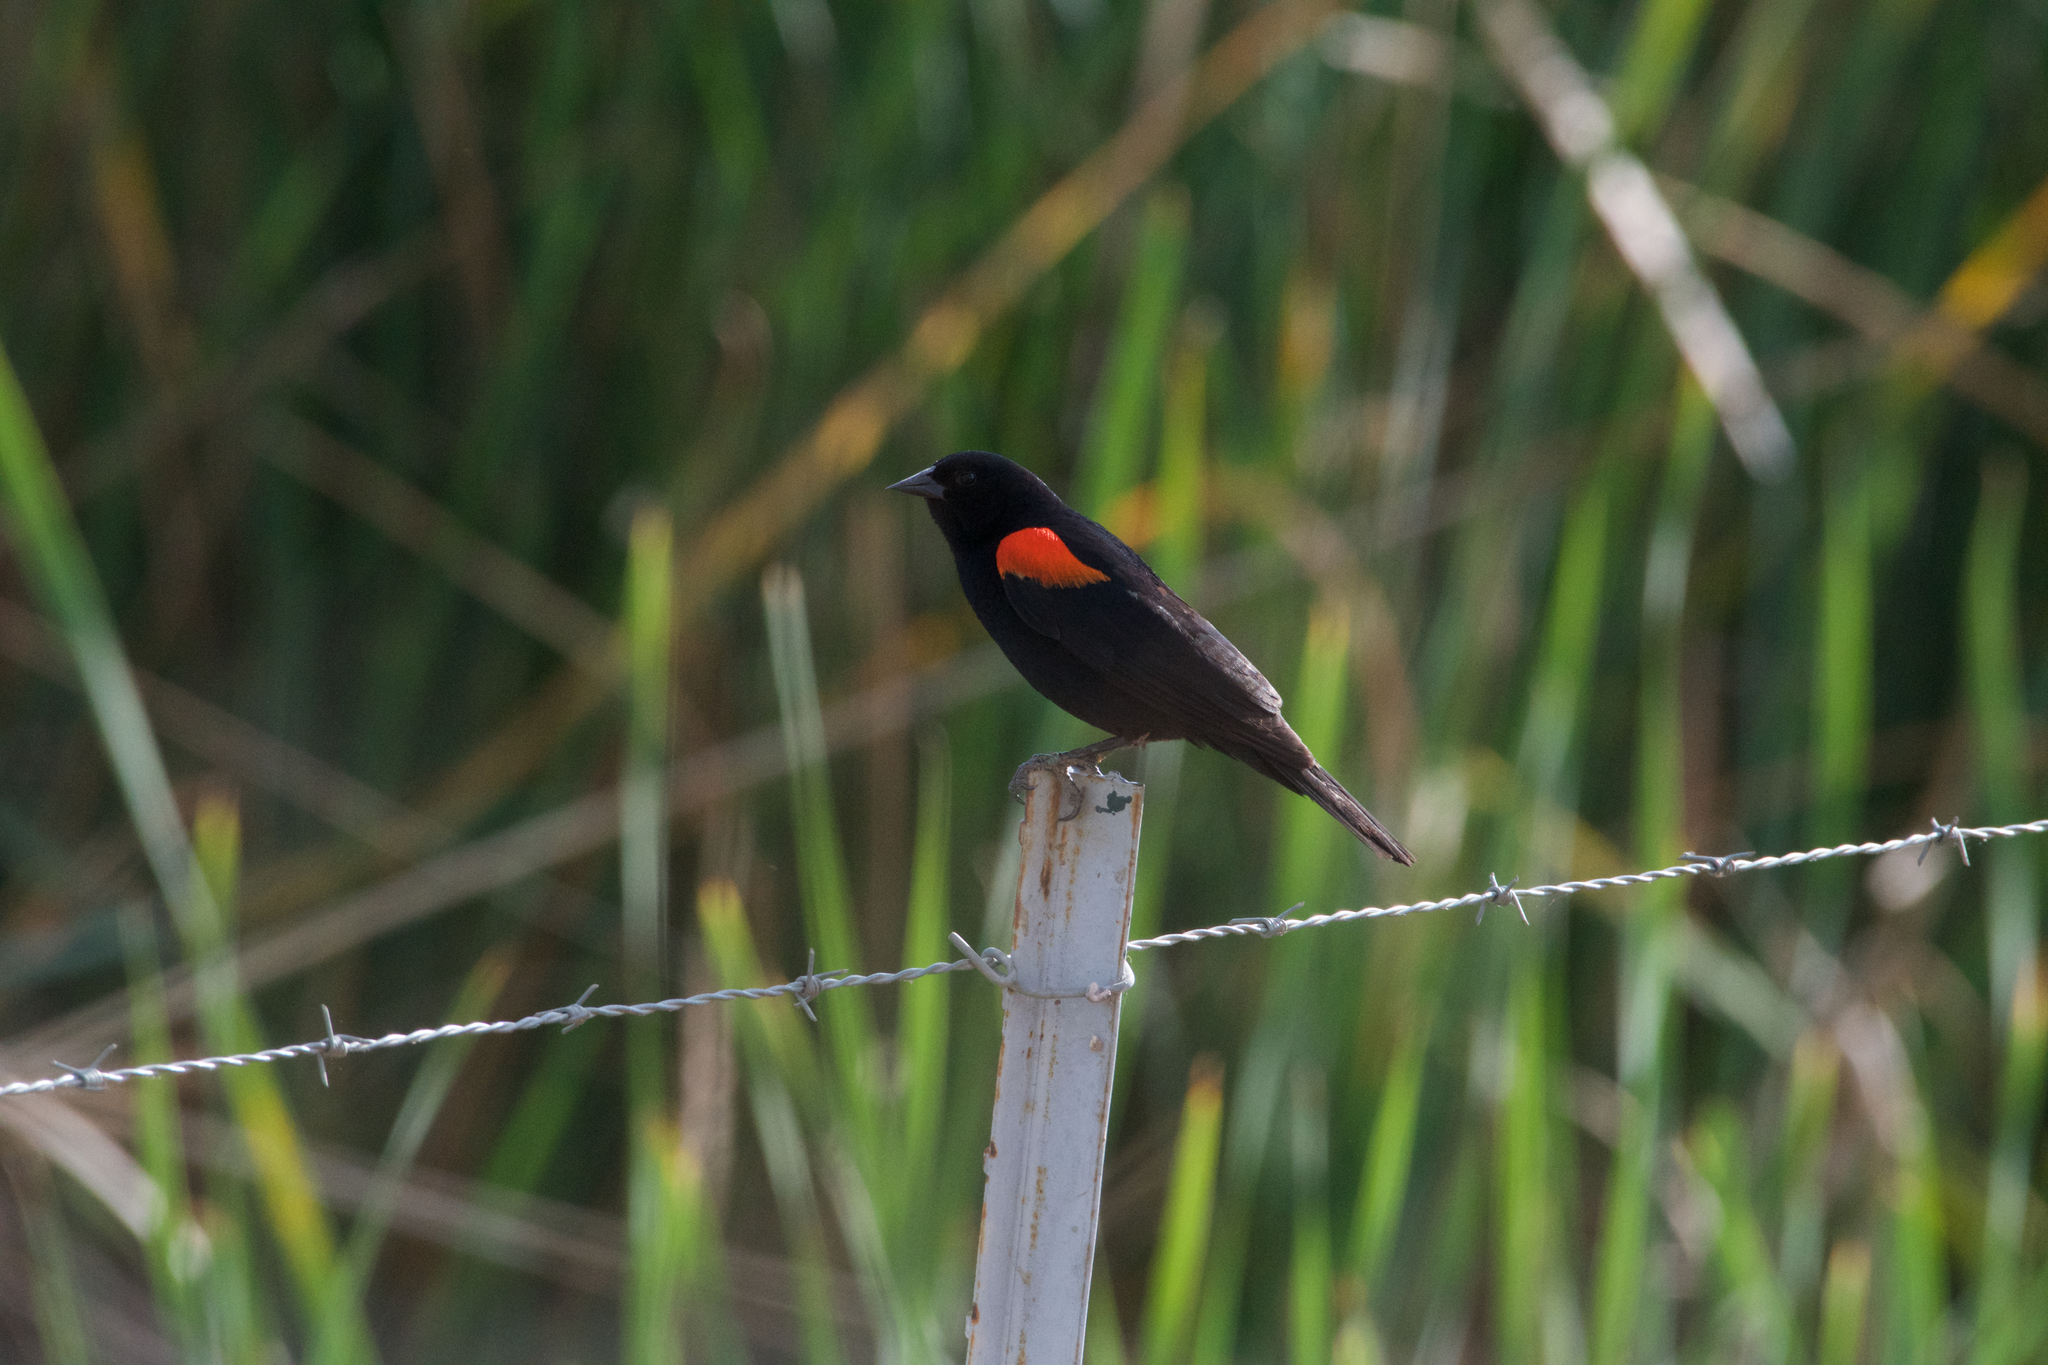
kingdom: Animalia
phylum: Chordata
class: Aves
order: Passeriformes
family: Icteridae
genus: Agelaius
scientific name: Agelaius phoeniceus
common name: Red-winged blackbird
